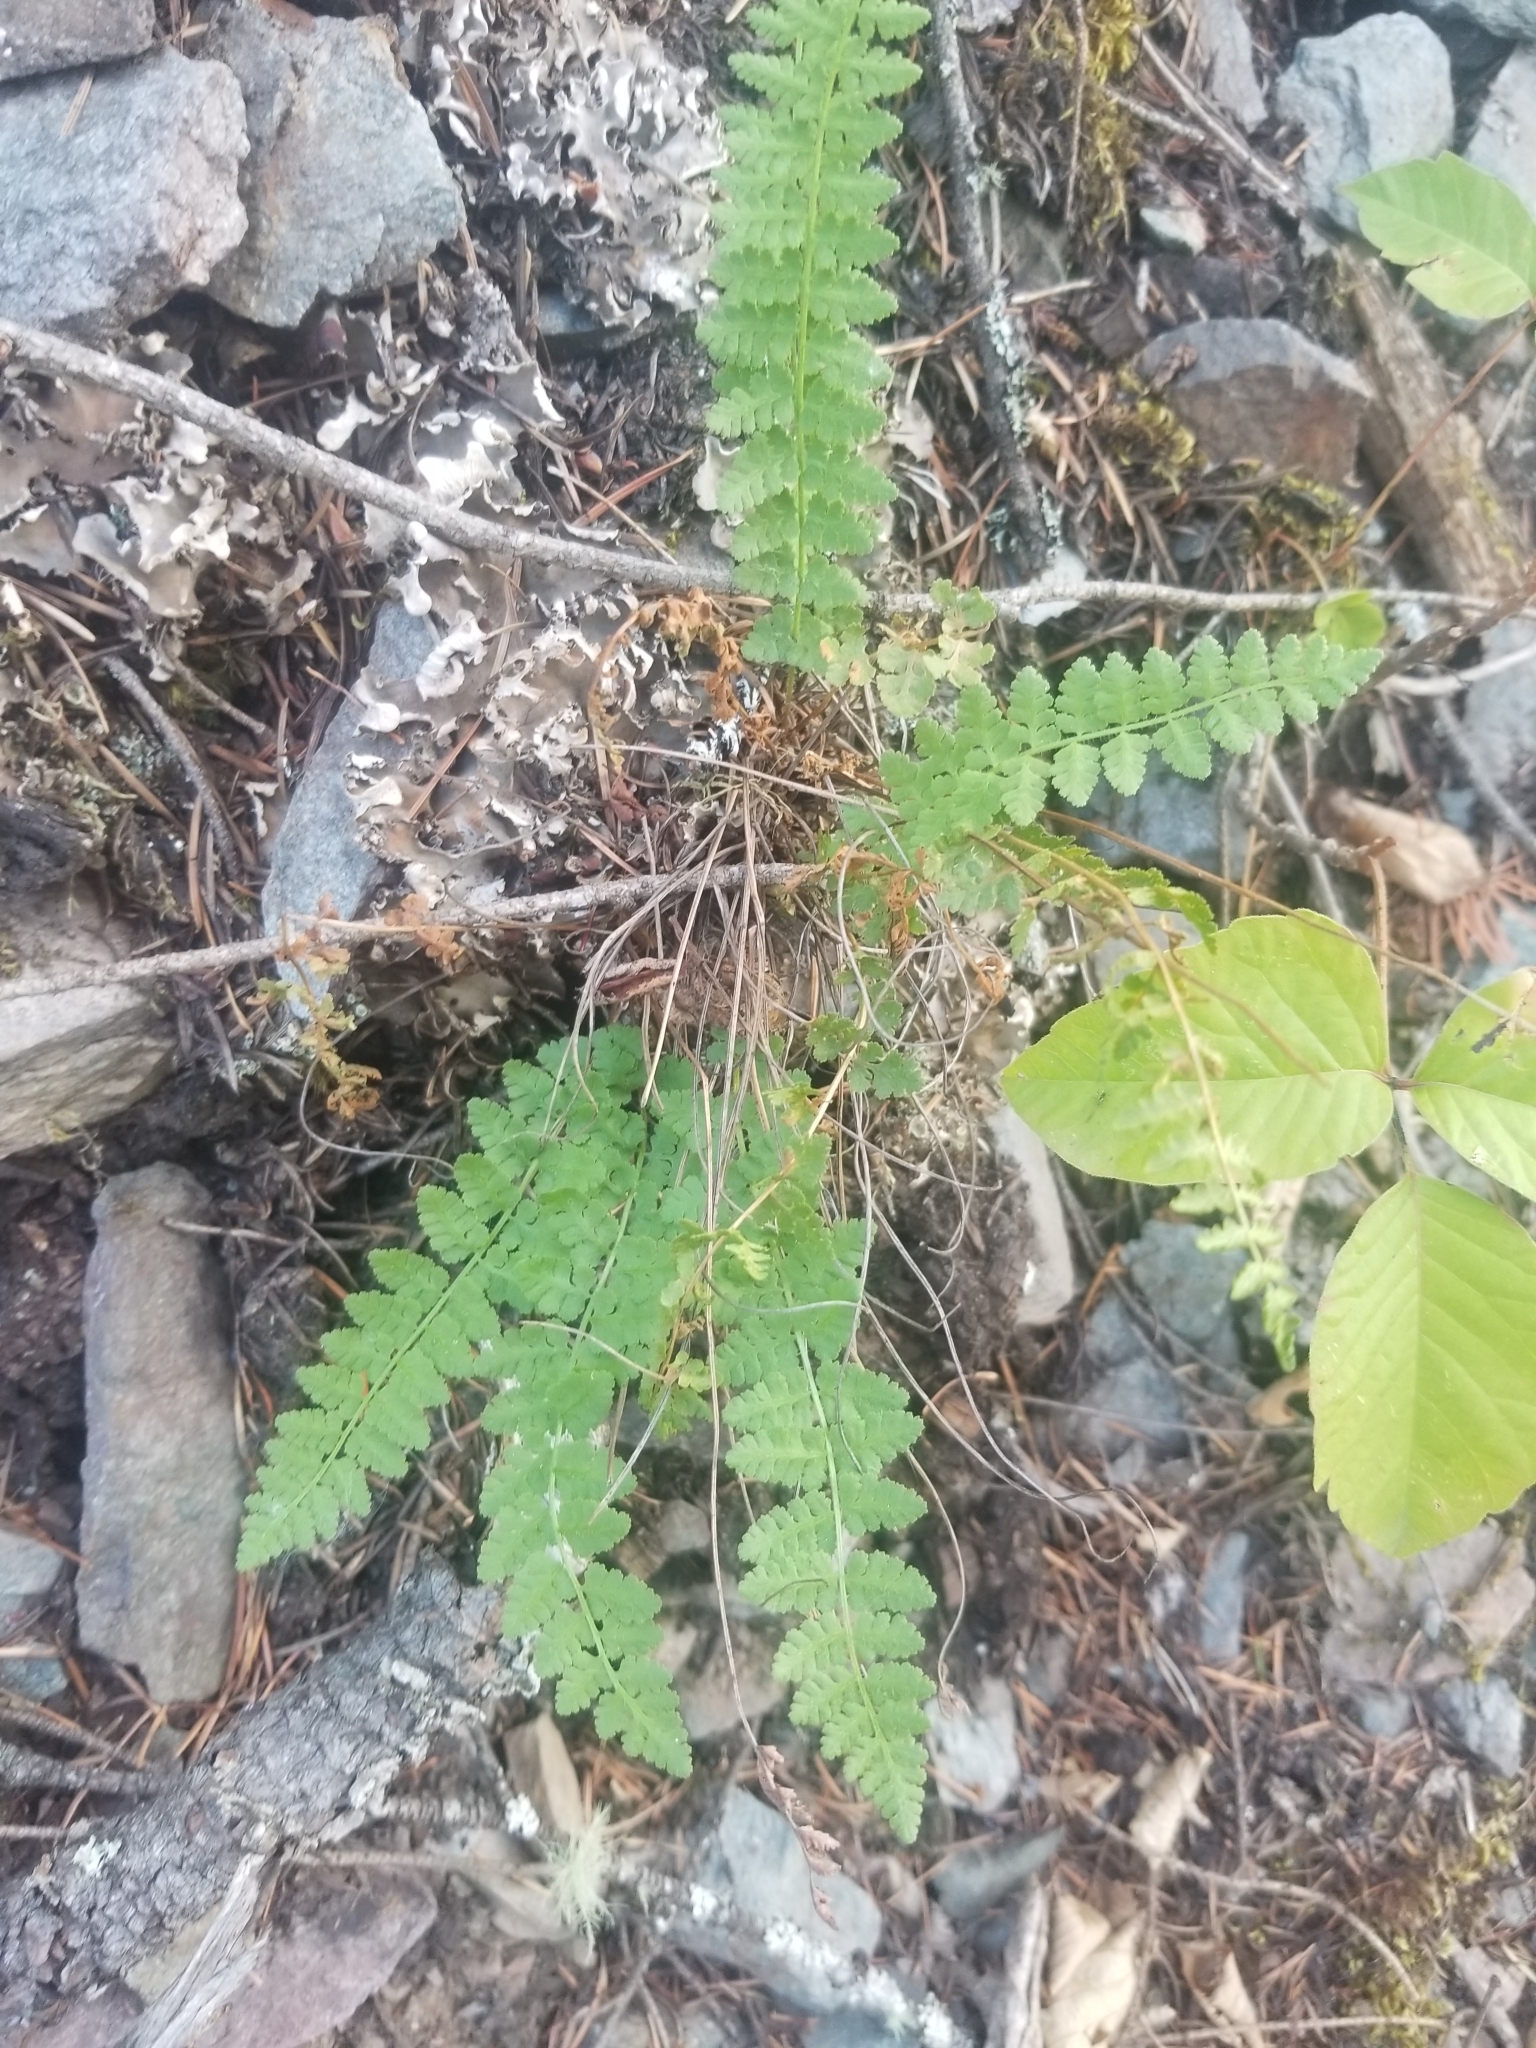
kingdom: Plantae
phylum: Tracheophyta
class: Polypodiopsida
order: Polypodiales
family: Woodsiaceae
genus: Physematium
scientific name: Physematium scopulinum
